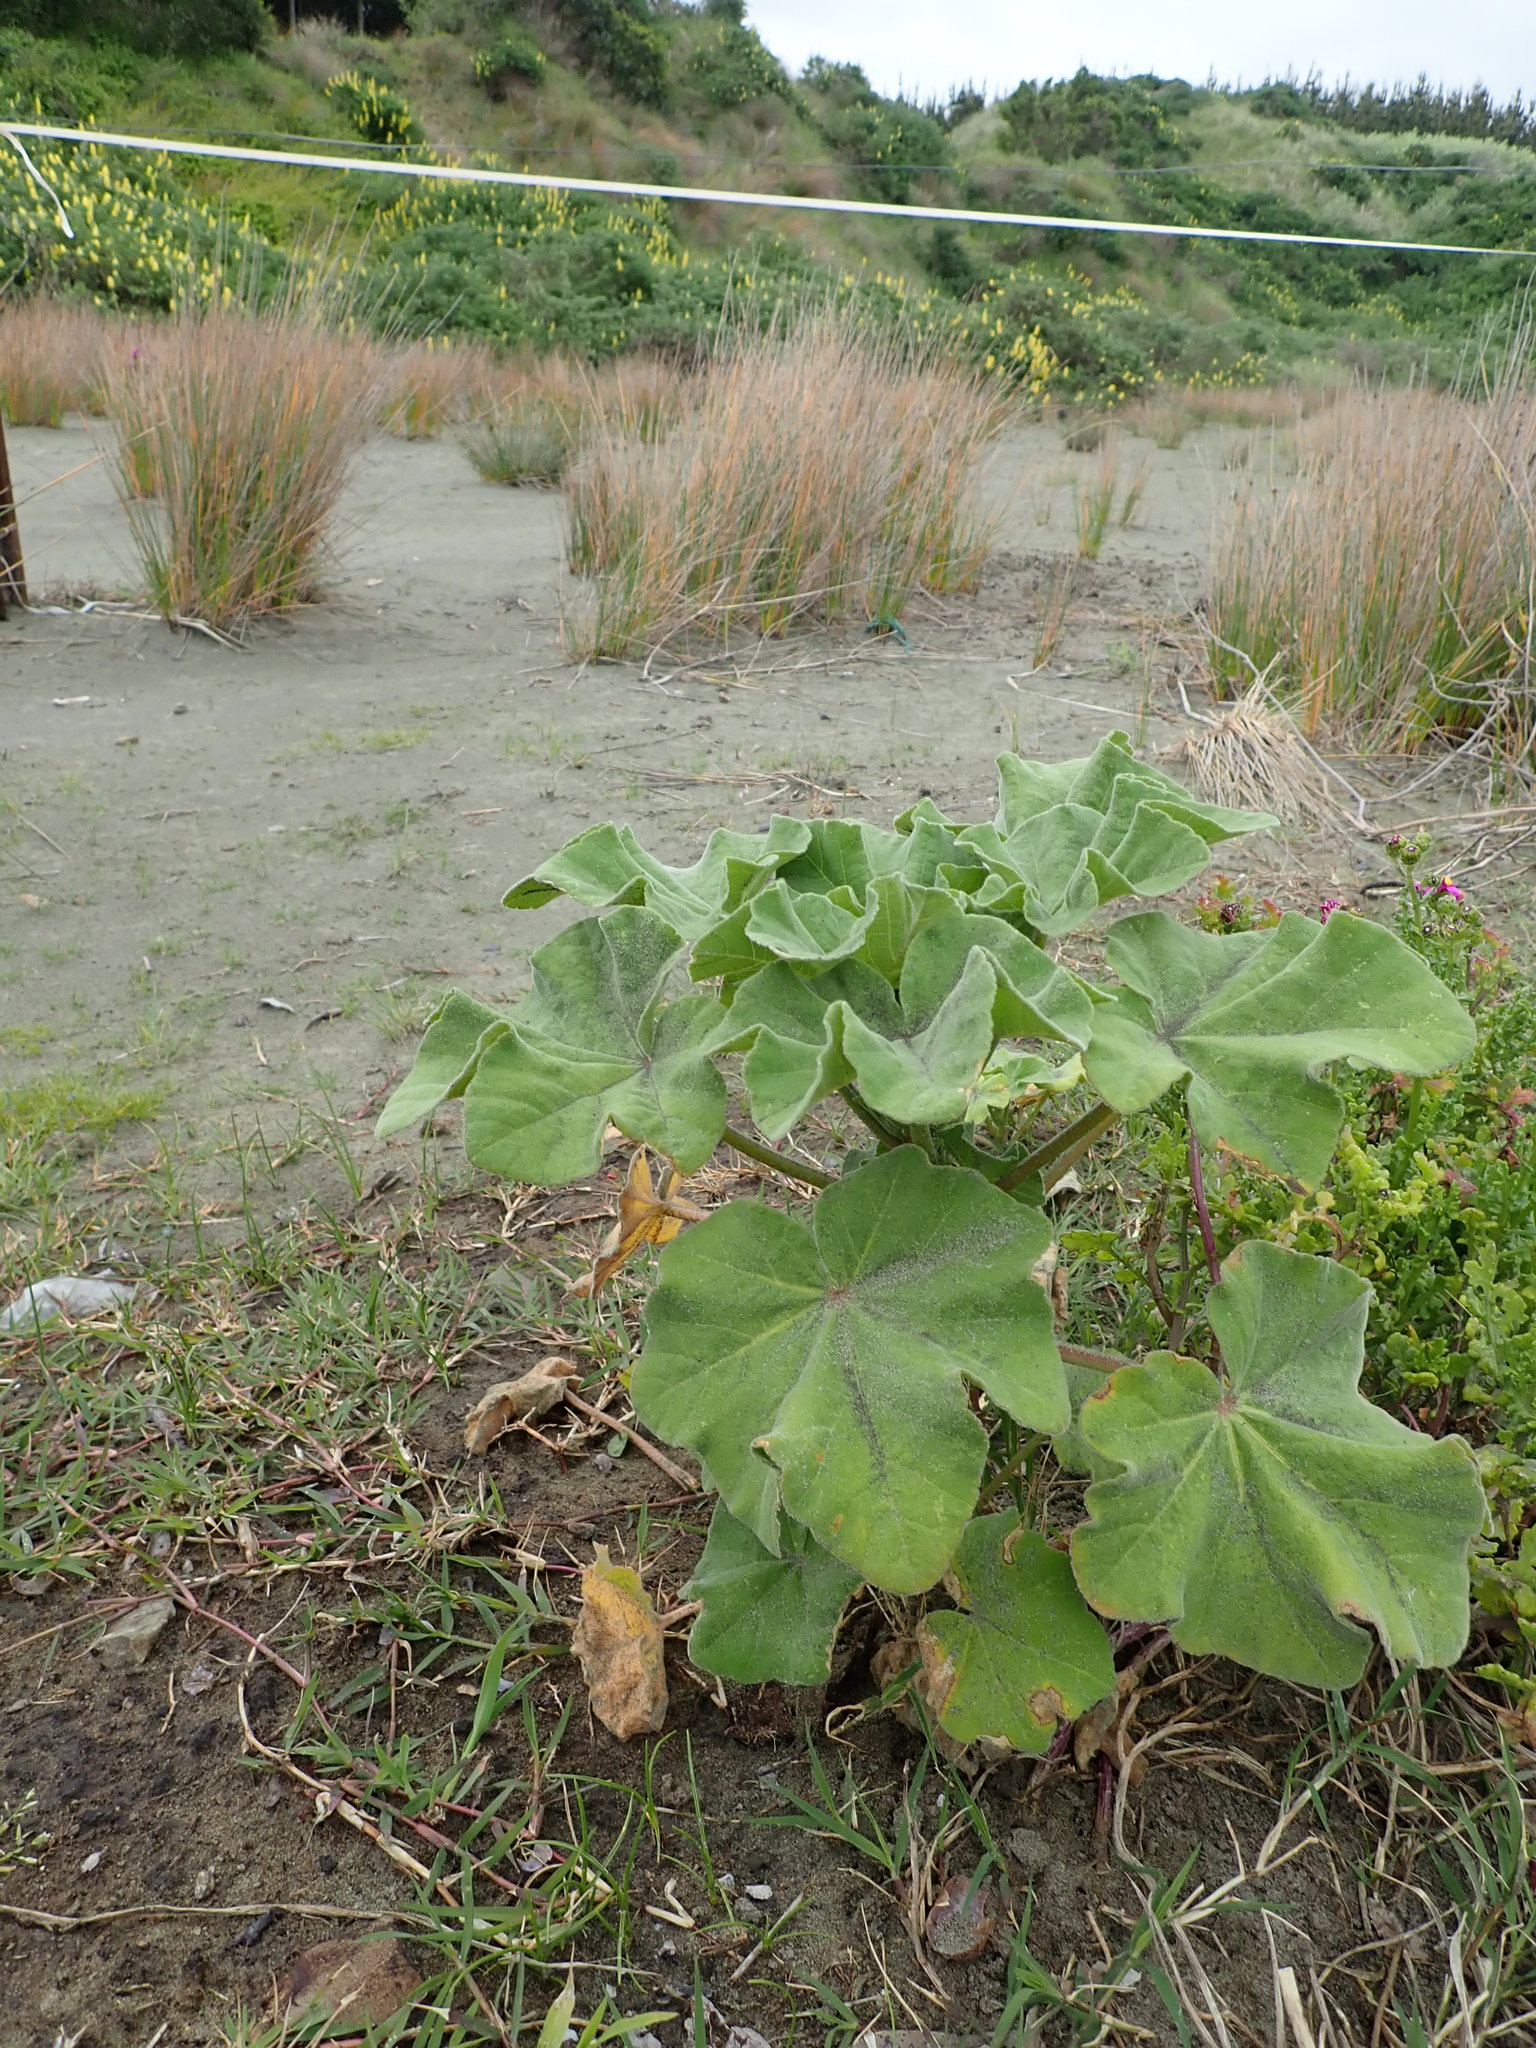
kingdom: Plantae
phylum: Tracheophyta
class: Magnoliopsida
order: Malvales
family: Malvaceae
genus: Malva
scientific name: Malva arborea
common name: Tree mallow
